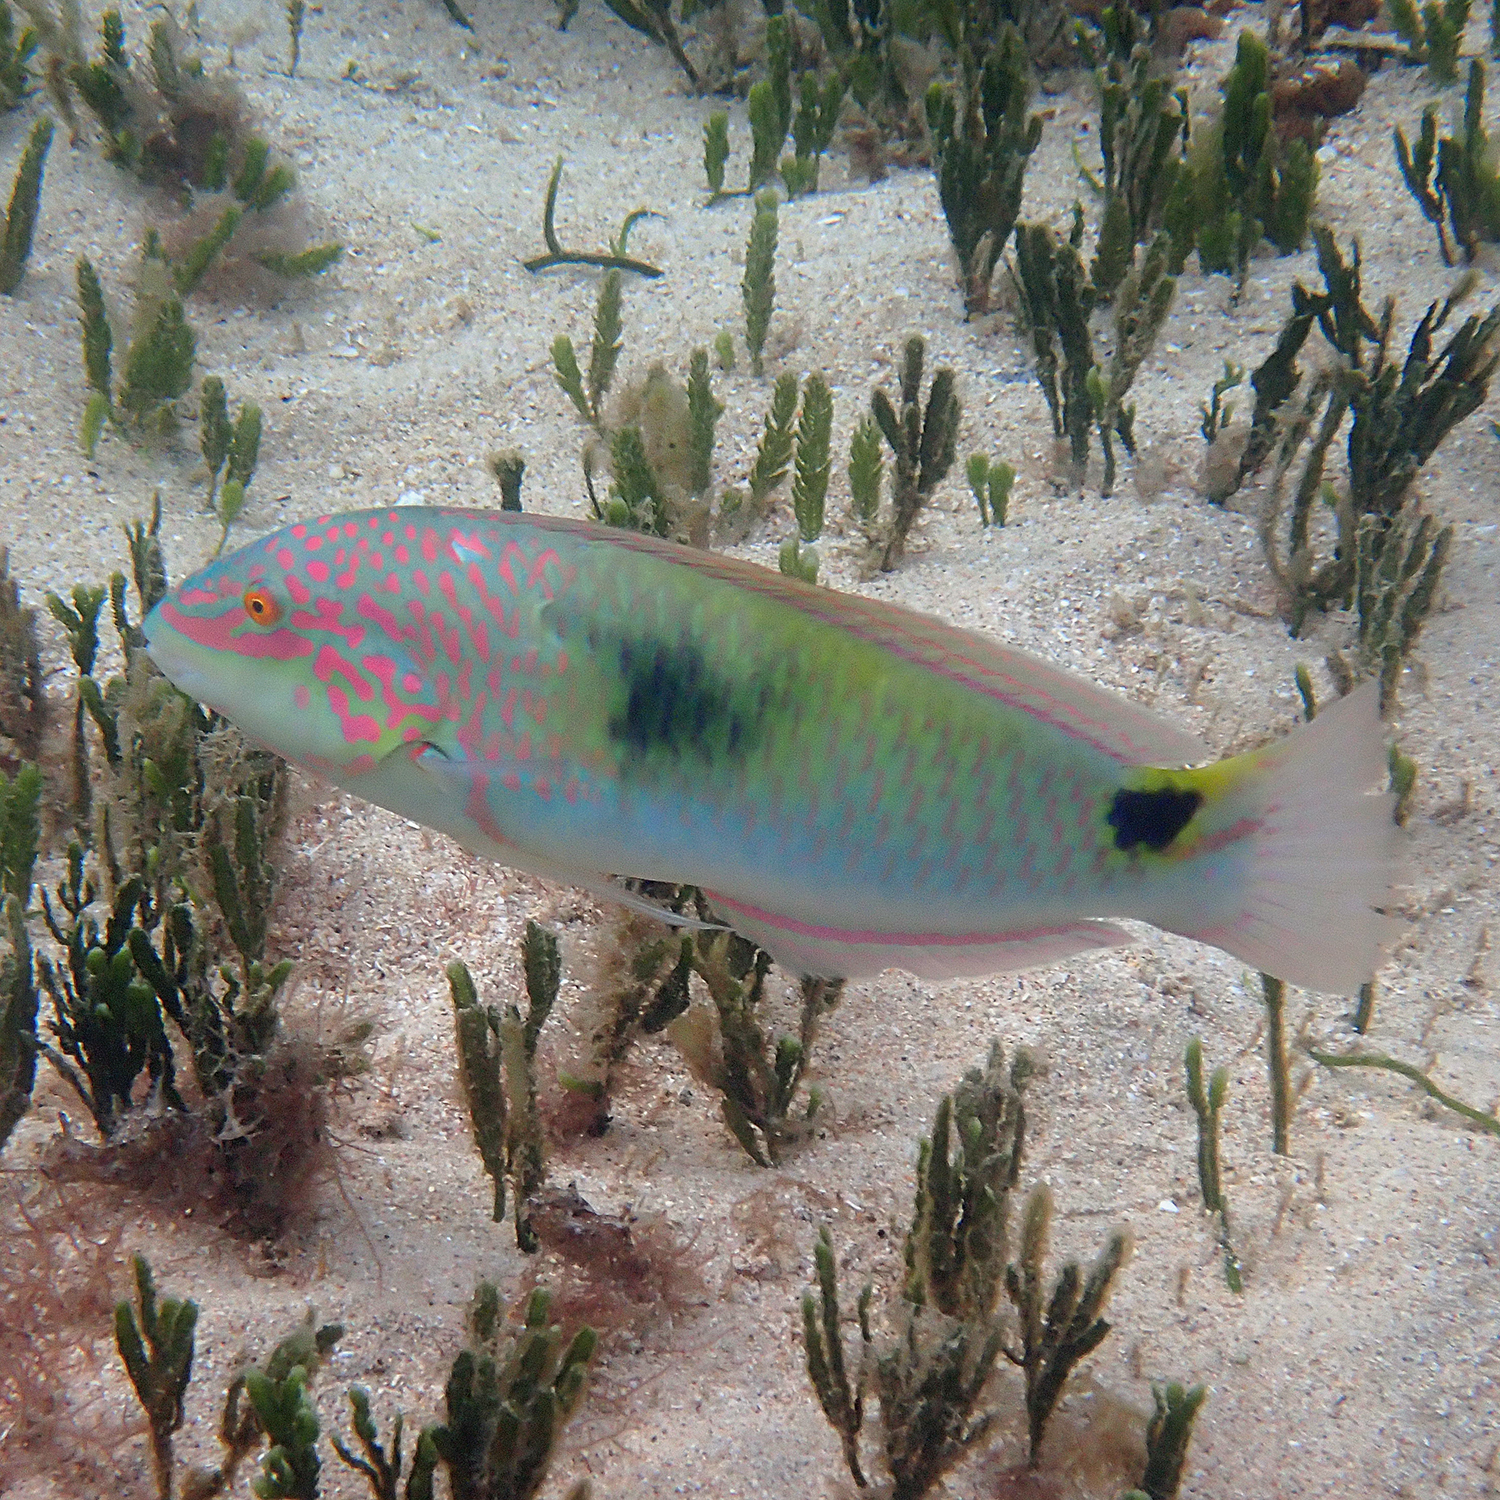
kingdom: Animalia
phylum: Chordata
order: Perciformes
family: Labridae
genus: Halichoeres
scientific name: Halichoeres trimaculatus
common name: Three-spot wrasse
